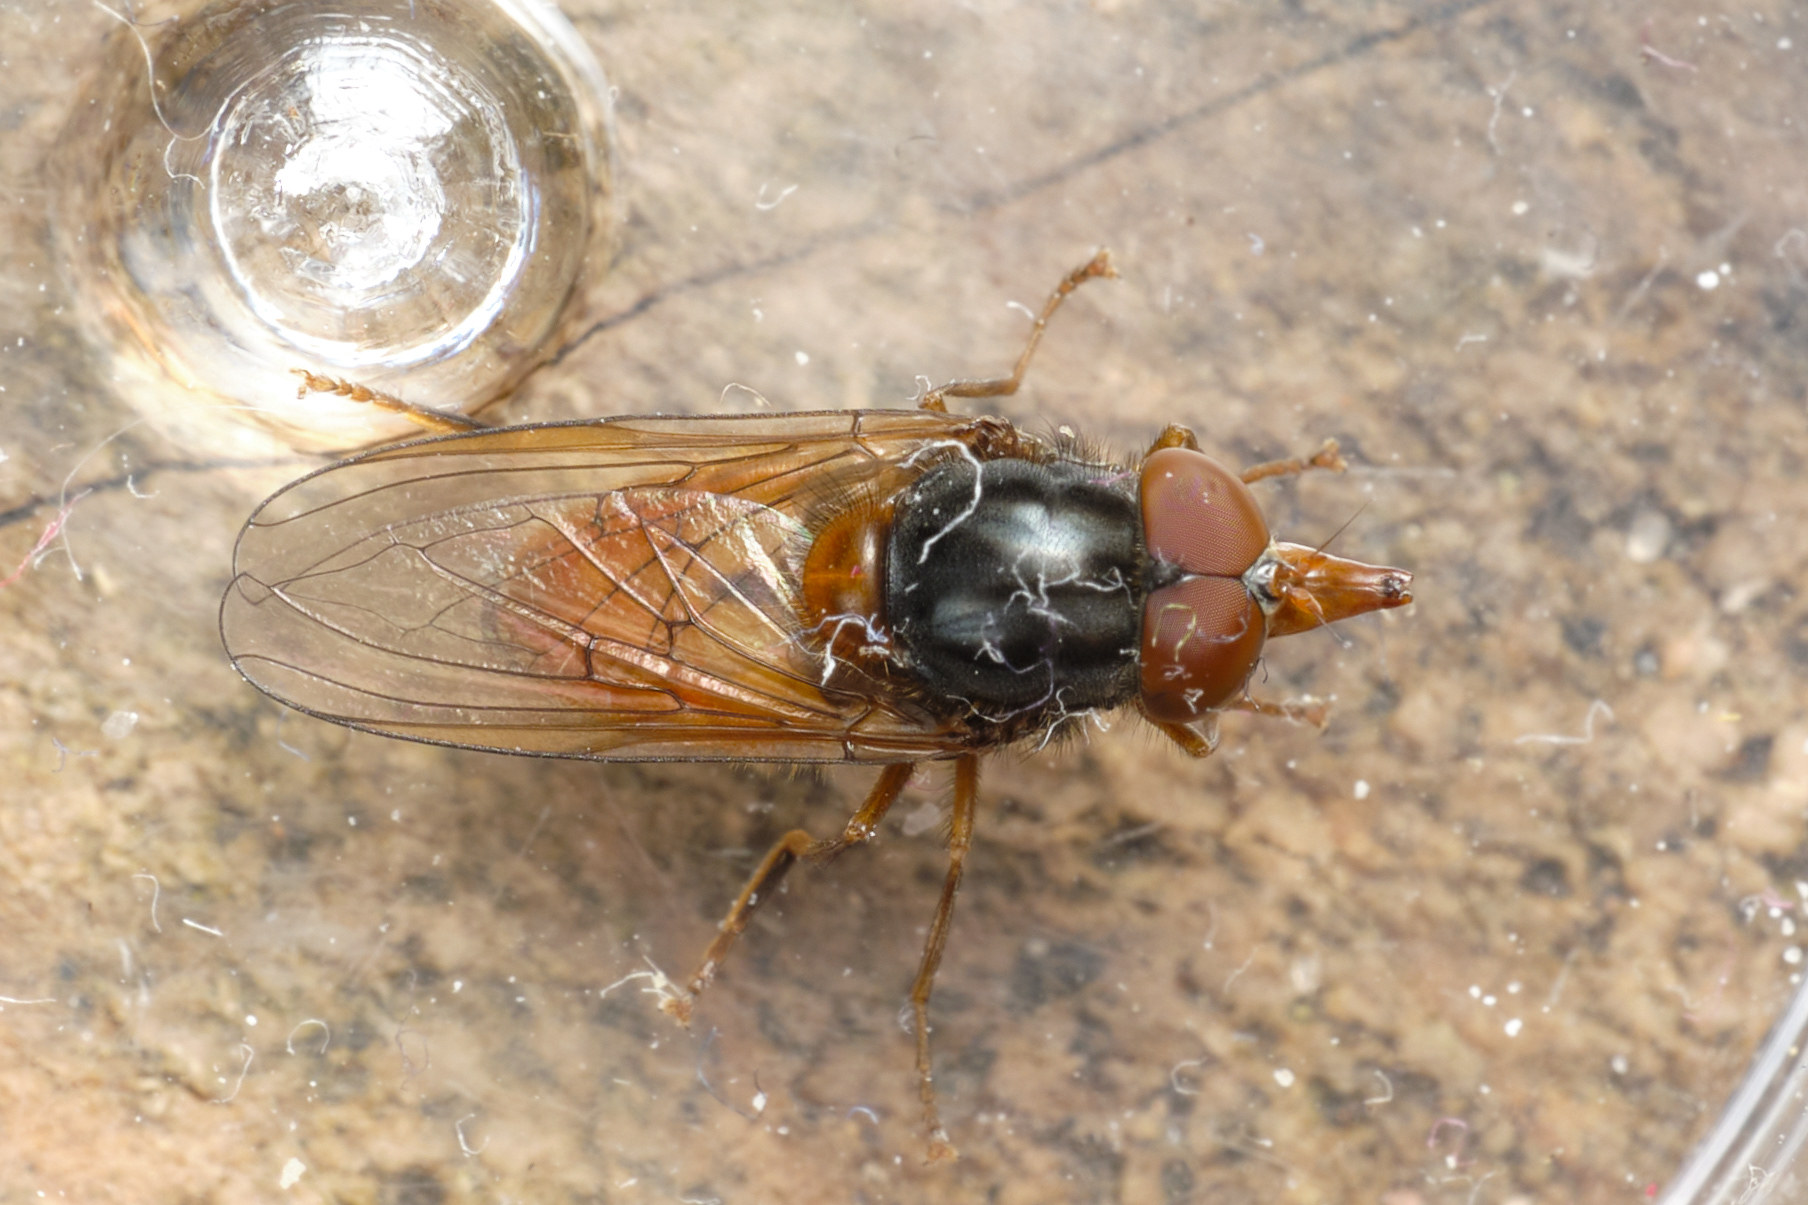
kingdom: Animalia
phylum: Arthropoda
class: Insecta
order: Diptera
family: Syrphidae
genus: Rhingia
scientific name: Rhingia rostrata
